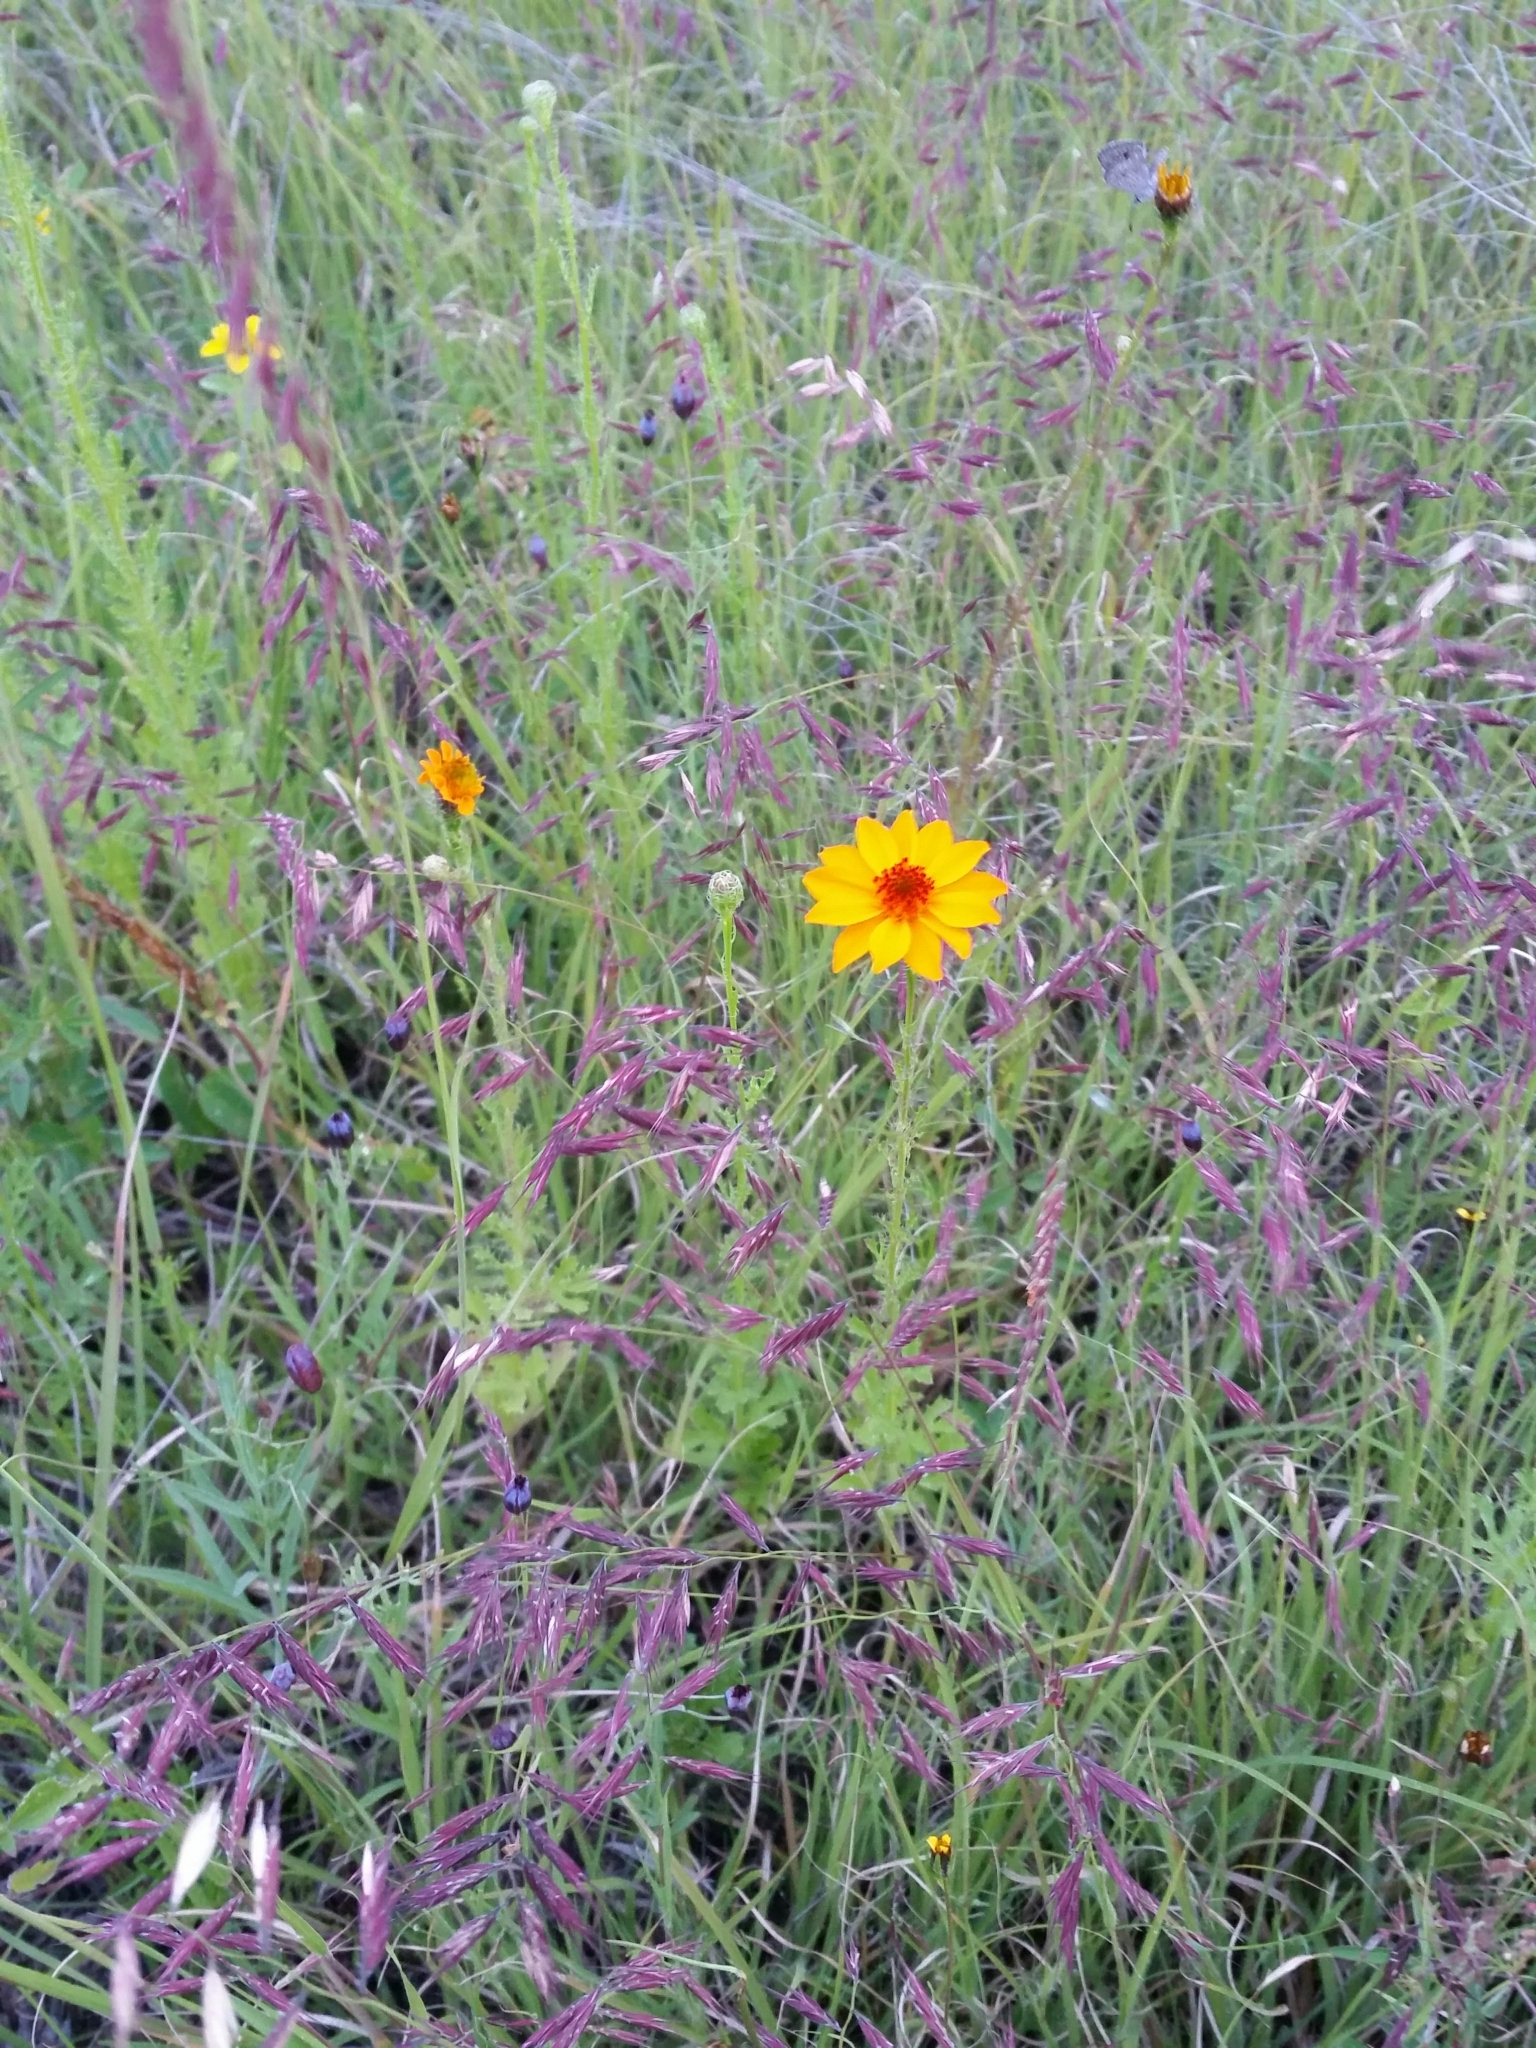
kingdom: Plantae
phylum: Tracheophyta
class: Magnoliopsida
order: Asterales
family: Asteraceae
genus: Adenophyllum
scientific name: Adenophyllum cancellatum
